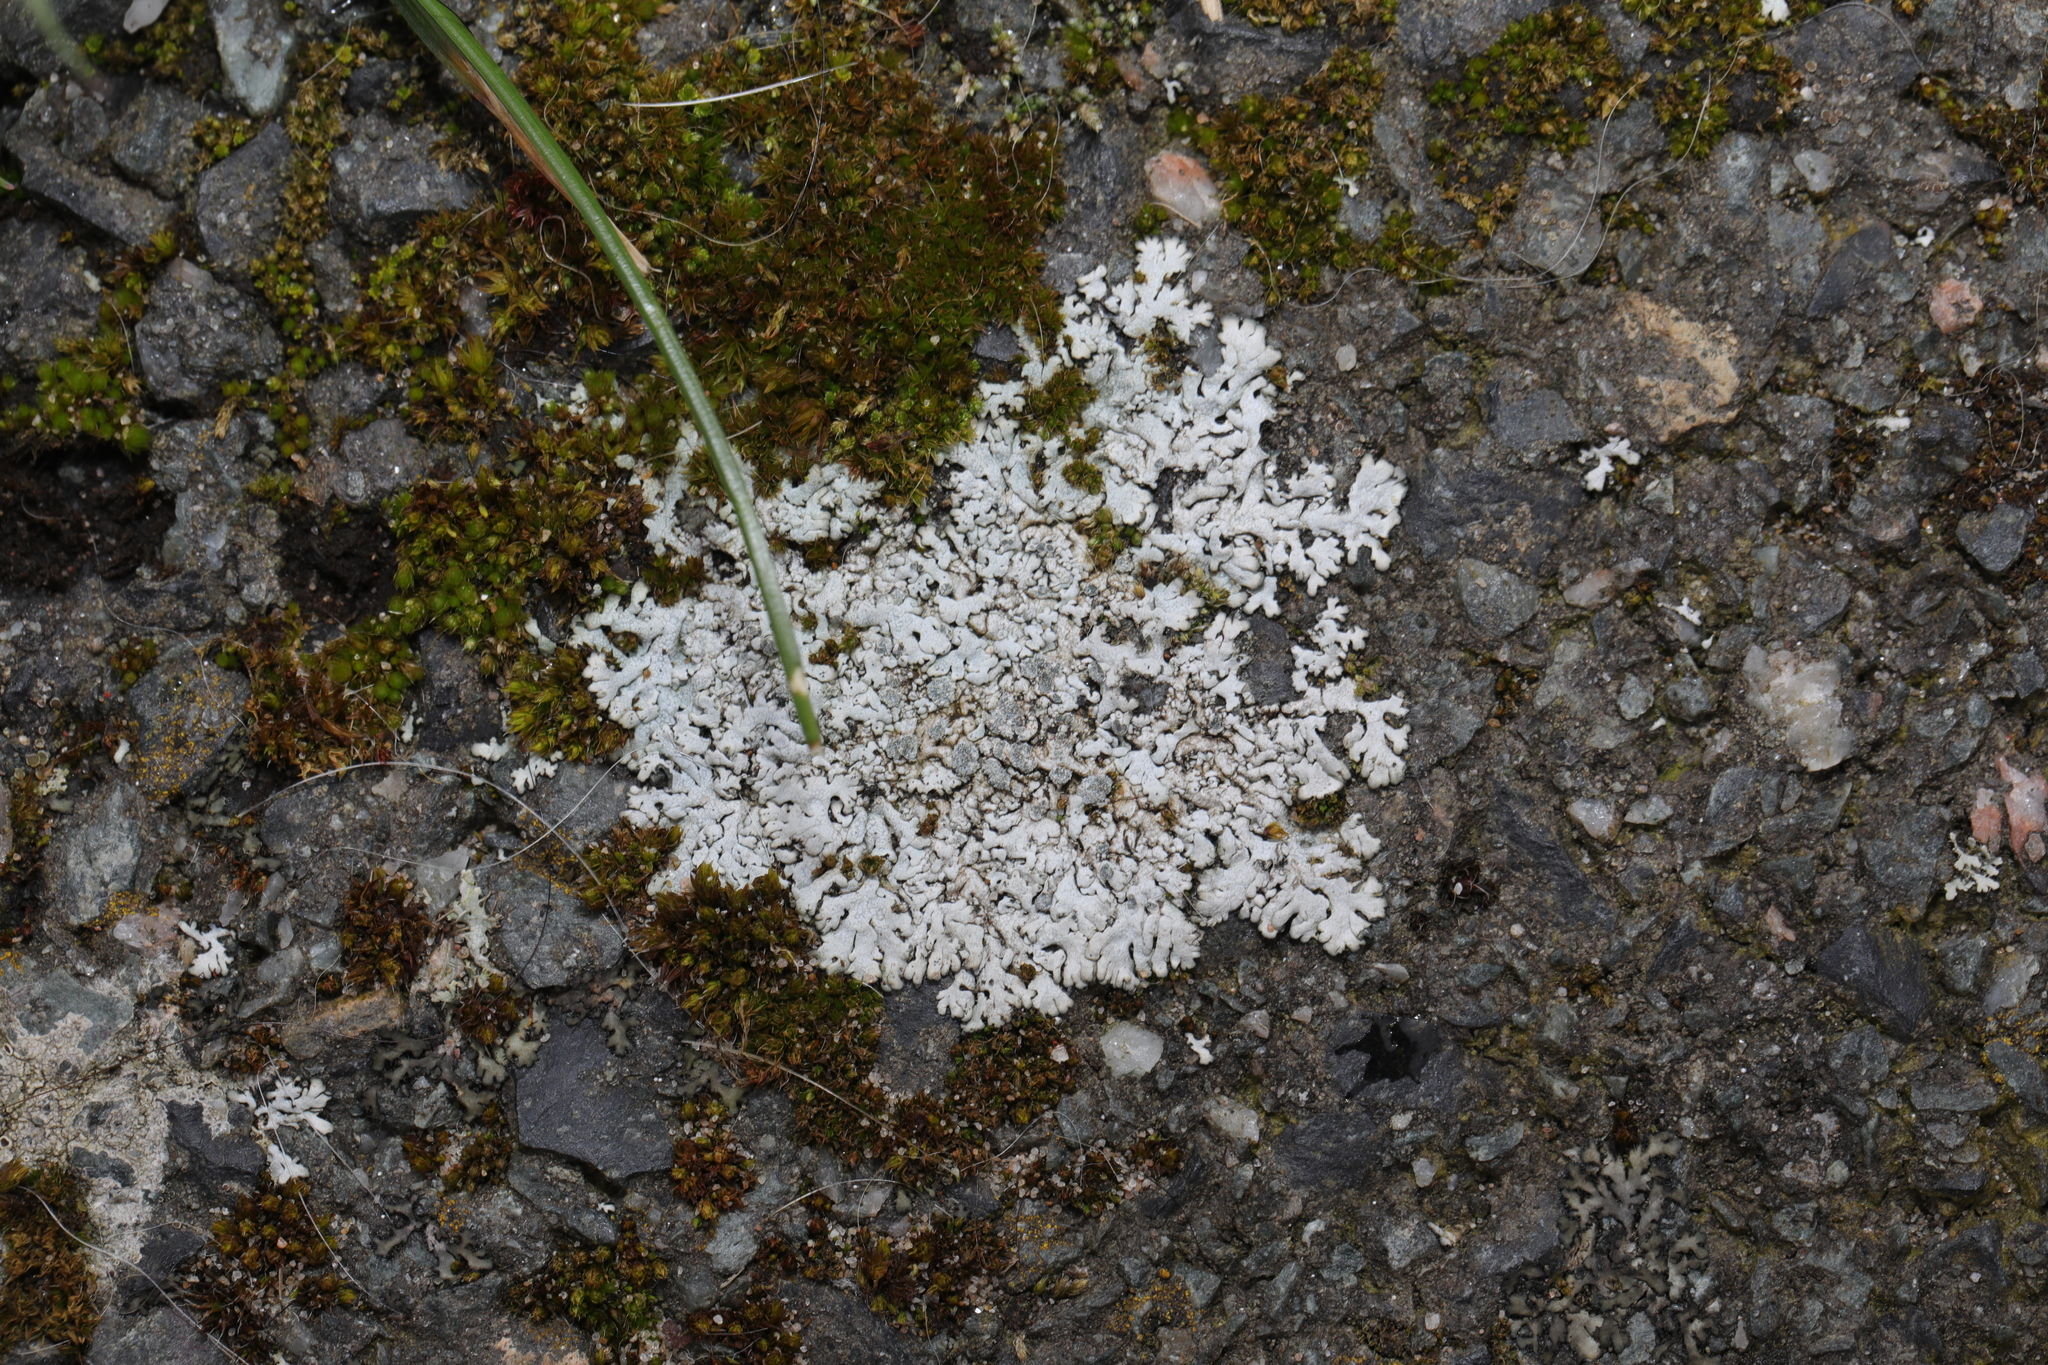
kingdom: Fungi
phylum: Ascomycota
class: Lecanoromycetes
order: Caliciales
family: Physciaceae
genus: Physcia
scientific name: Physcia caesia
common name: Blue-gray rosette lichen
